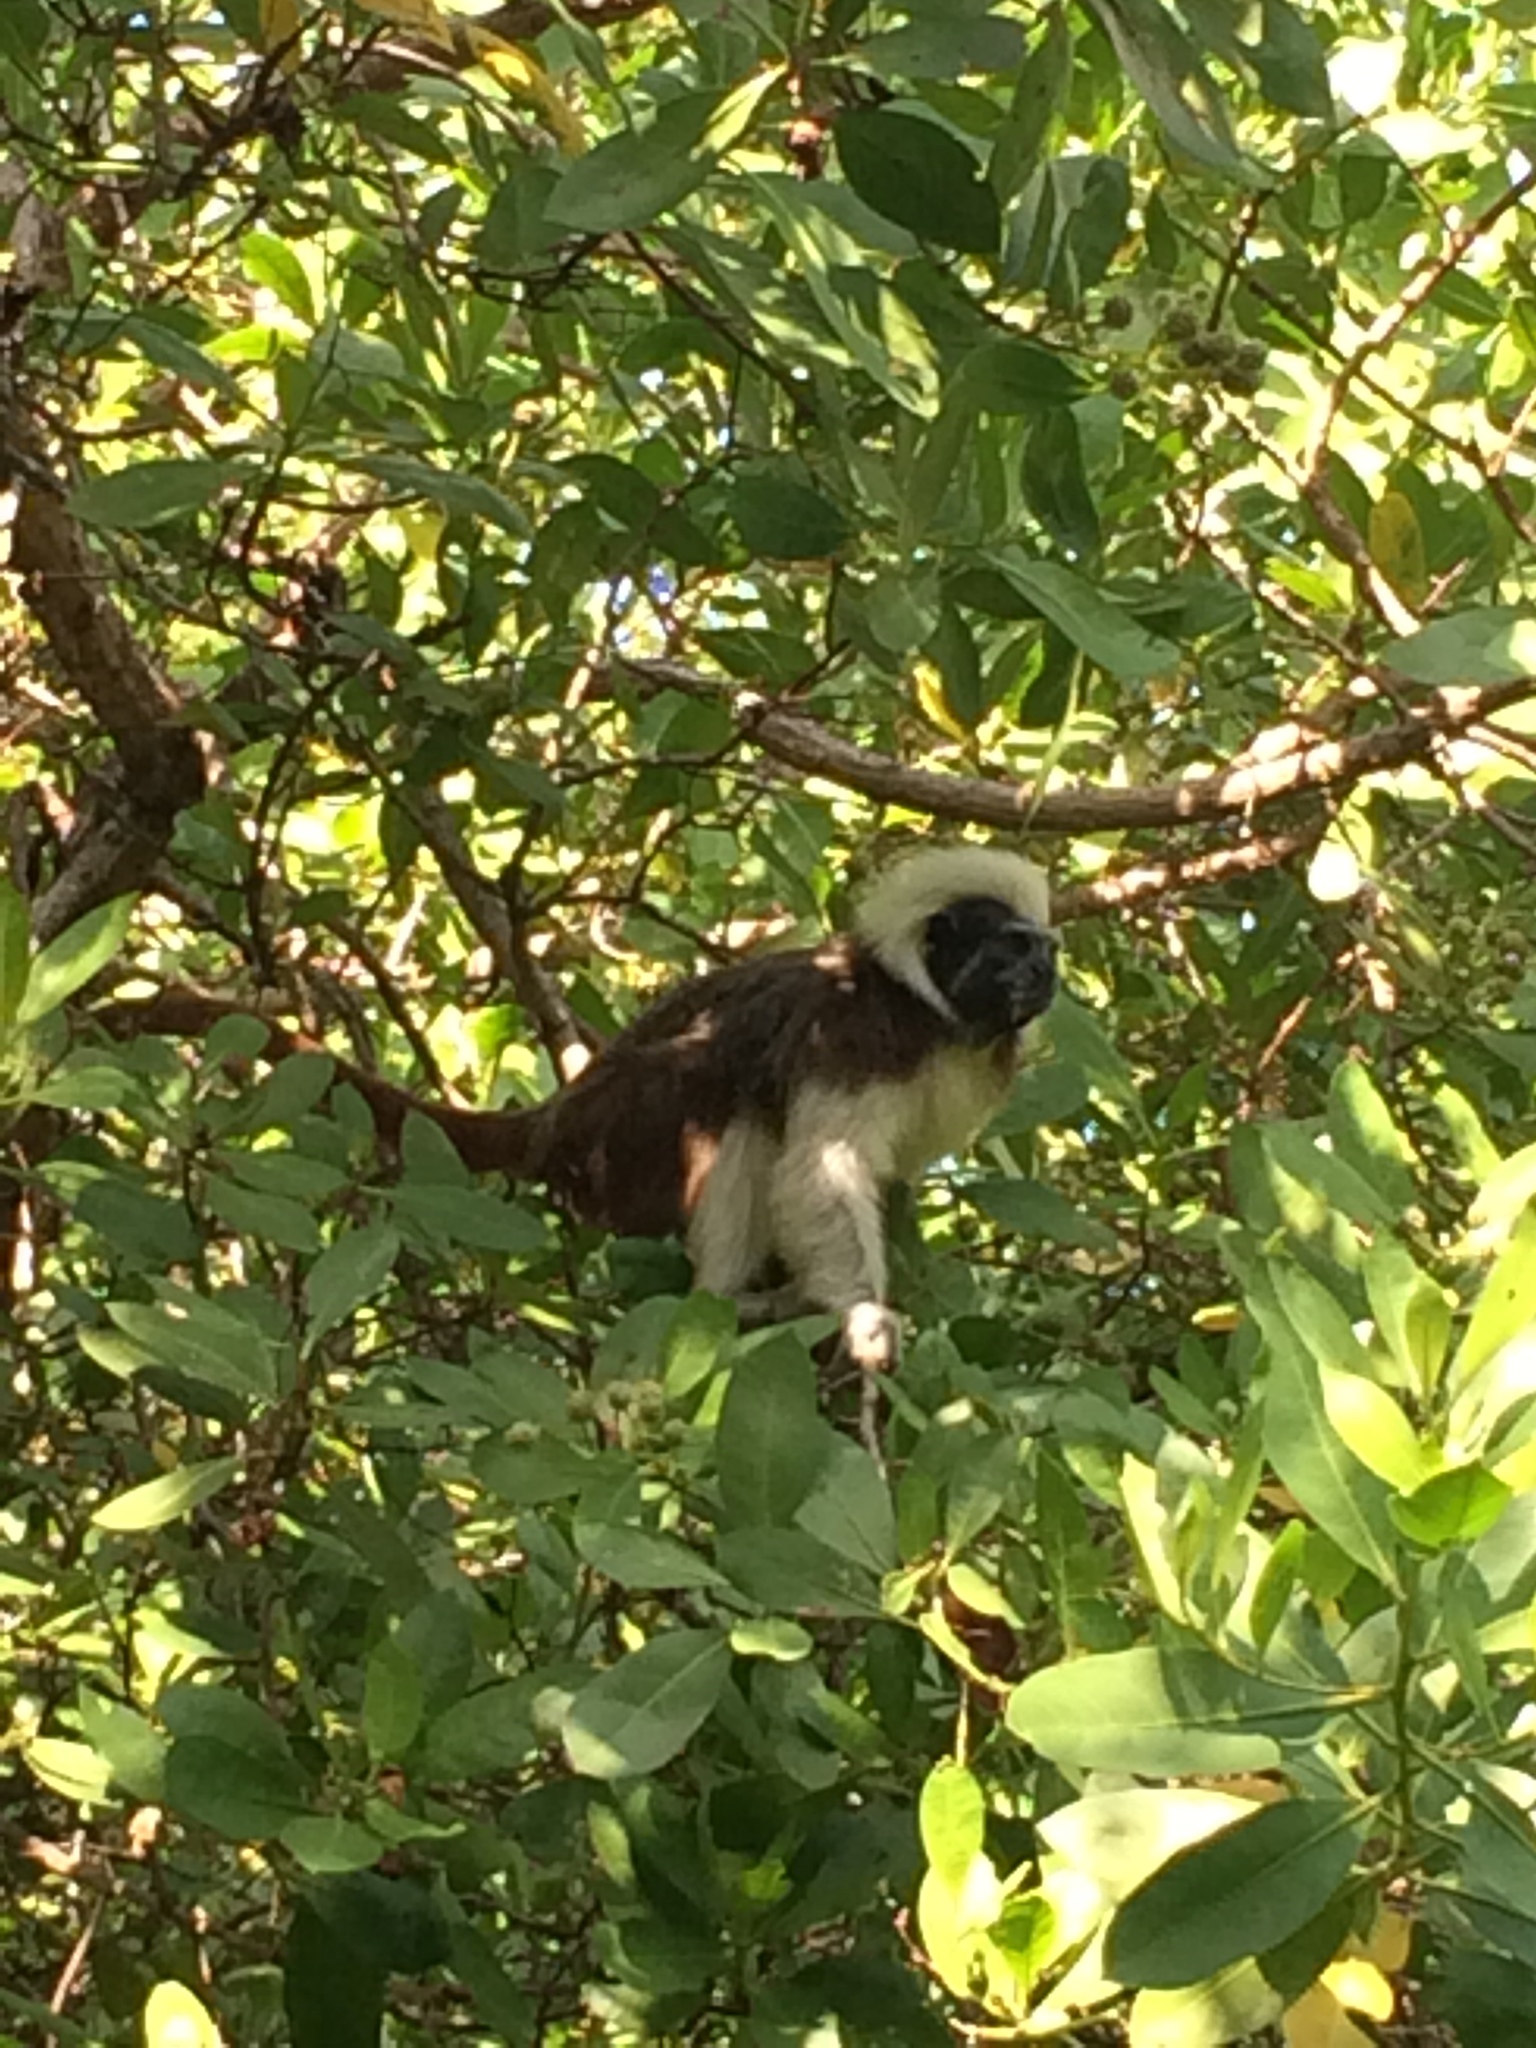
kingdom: Animalia
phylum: Chordata
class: Mammalia
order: Primates
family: Callitrichidae
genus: Saguinus
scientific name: Saguinus oedipus
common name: Cottontop tamarin
